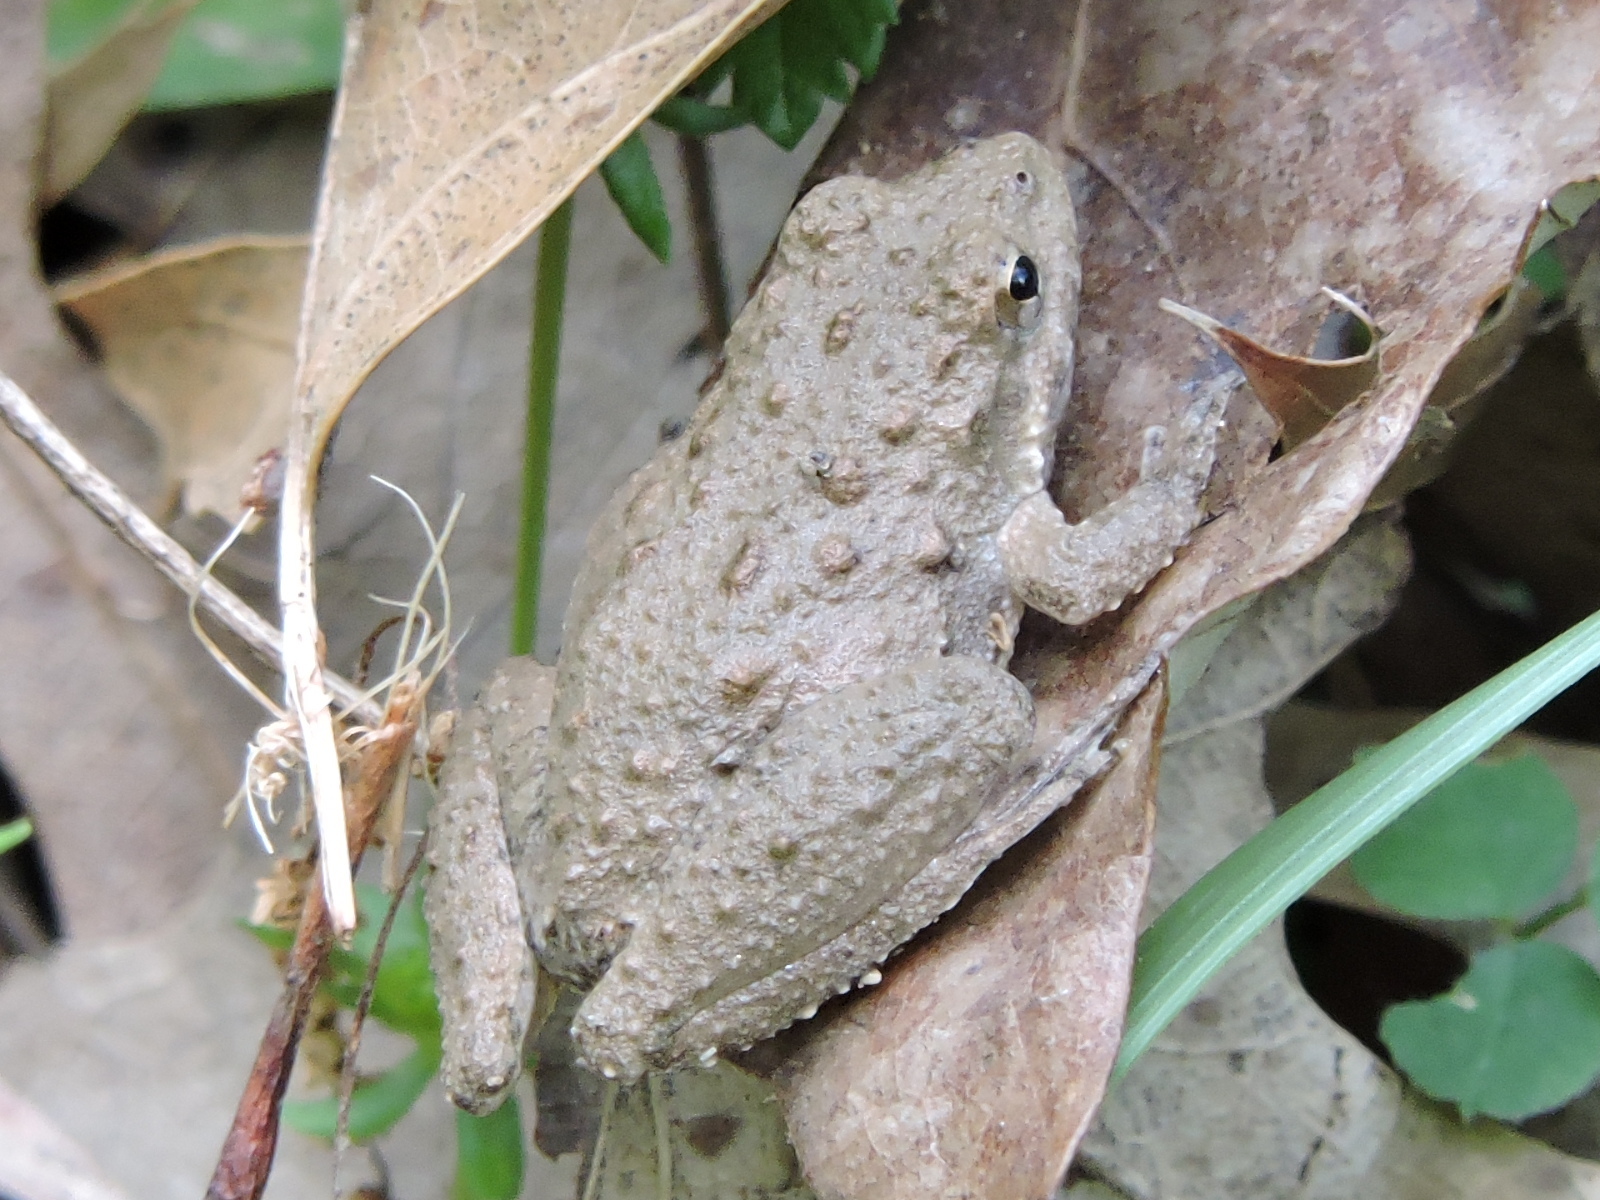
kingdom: Animalia
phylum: Chordata
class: Amphibia
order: Anura
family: Hylidae
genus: Acris
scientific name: Acris blanchardi
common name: Blanchard's cricket frog
